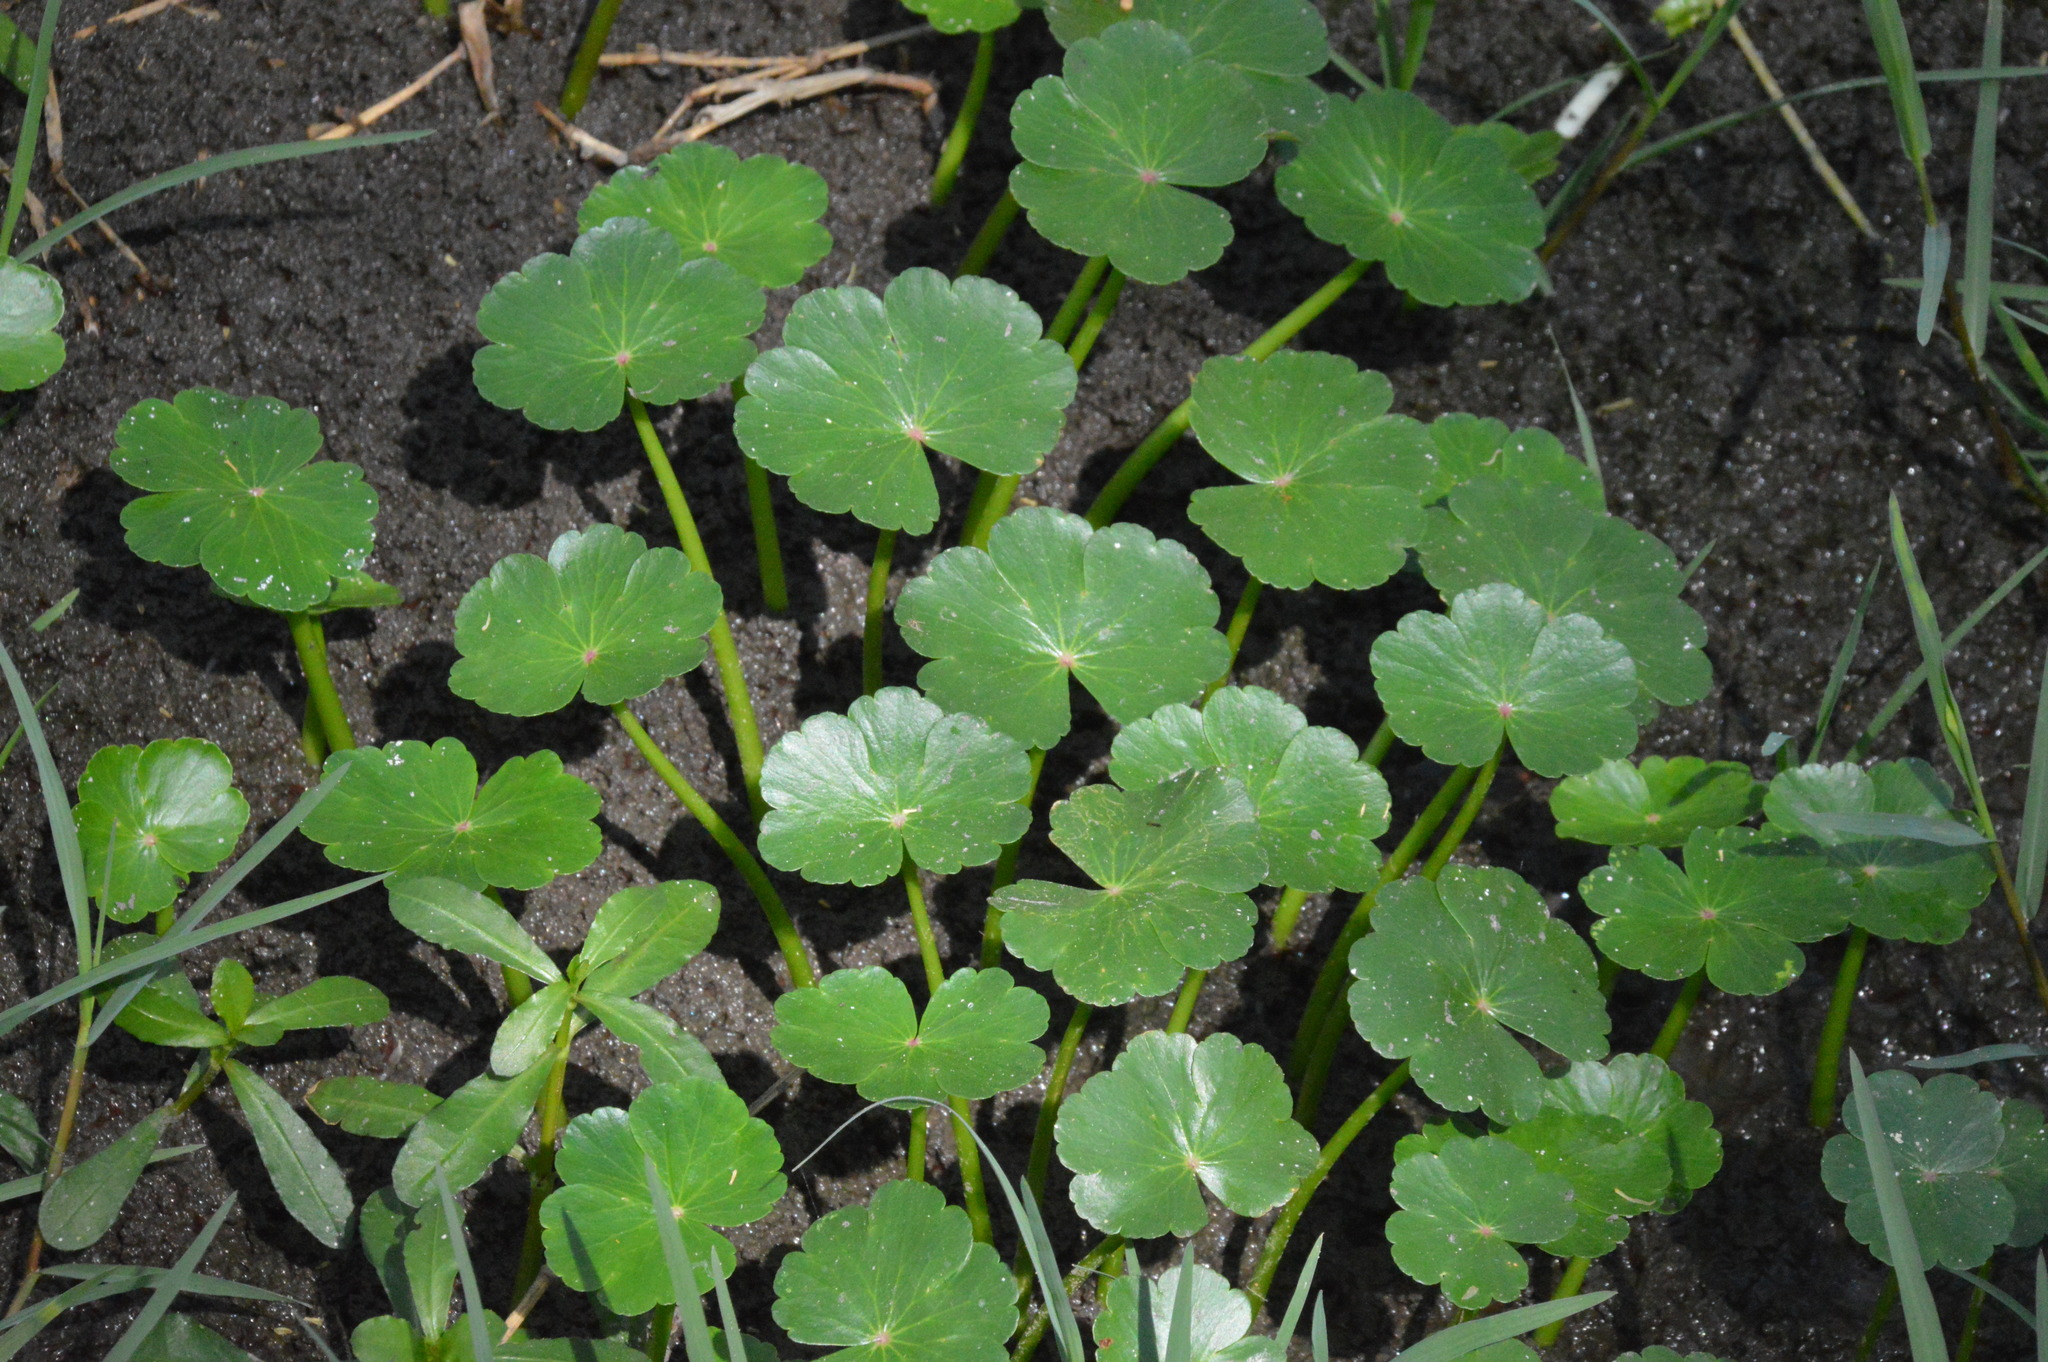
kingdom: Plantae
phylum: Tracheophyta
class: Magnoliopsida
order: Apiales
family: Araliaceae
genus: Hydrocotyle
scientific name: Hydrocotyle ranunculoides
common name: Floating pennywort
